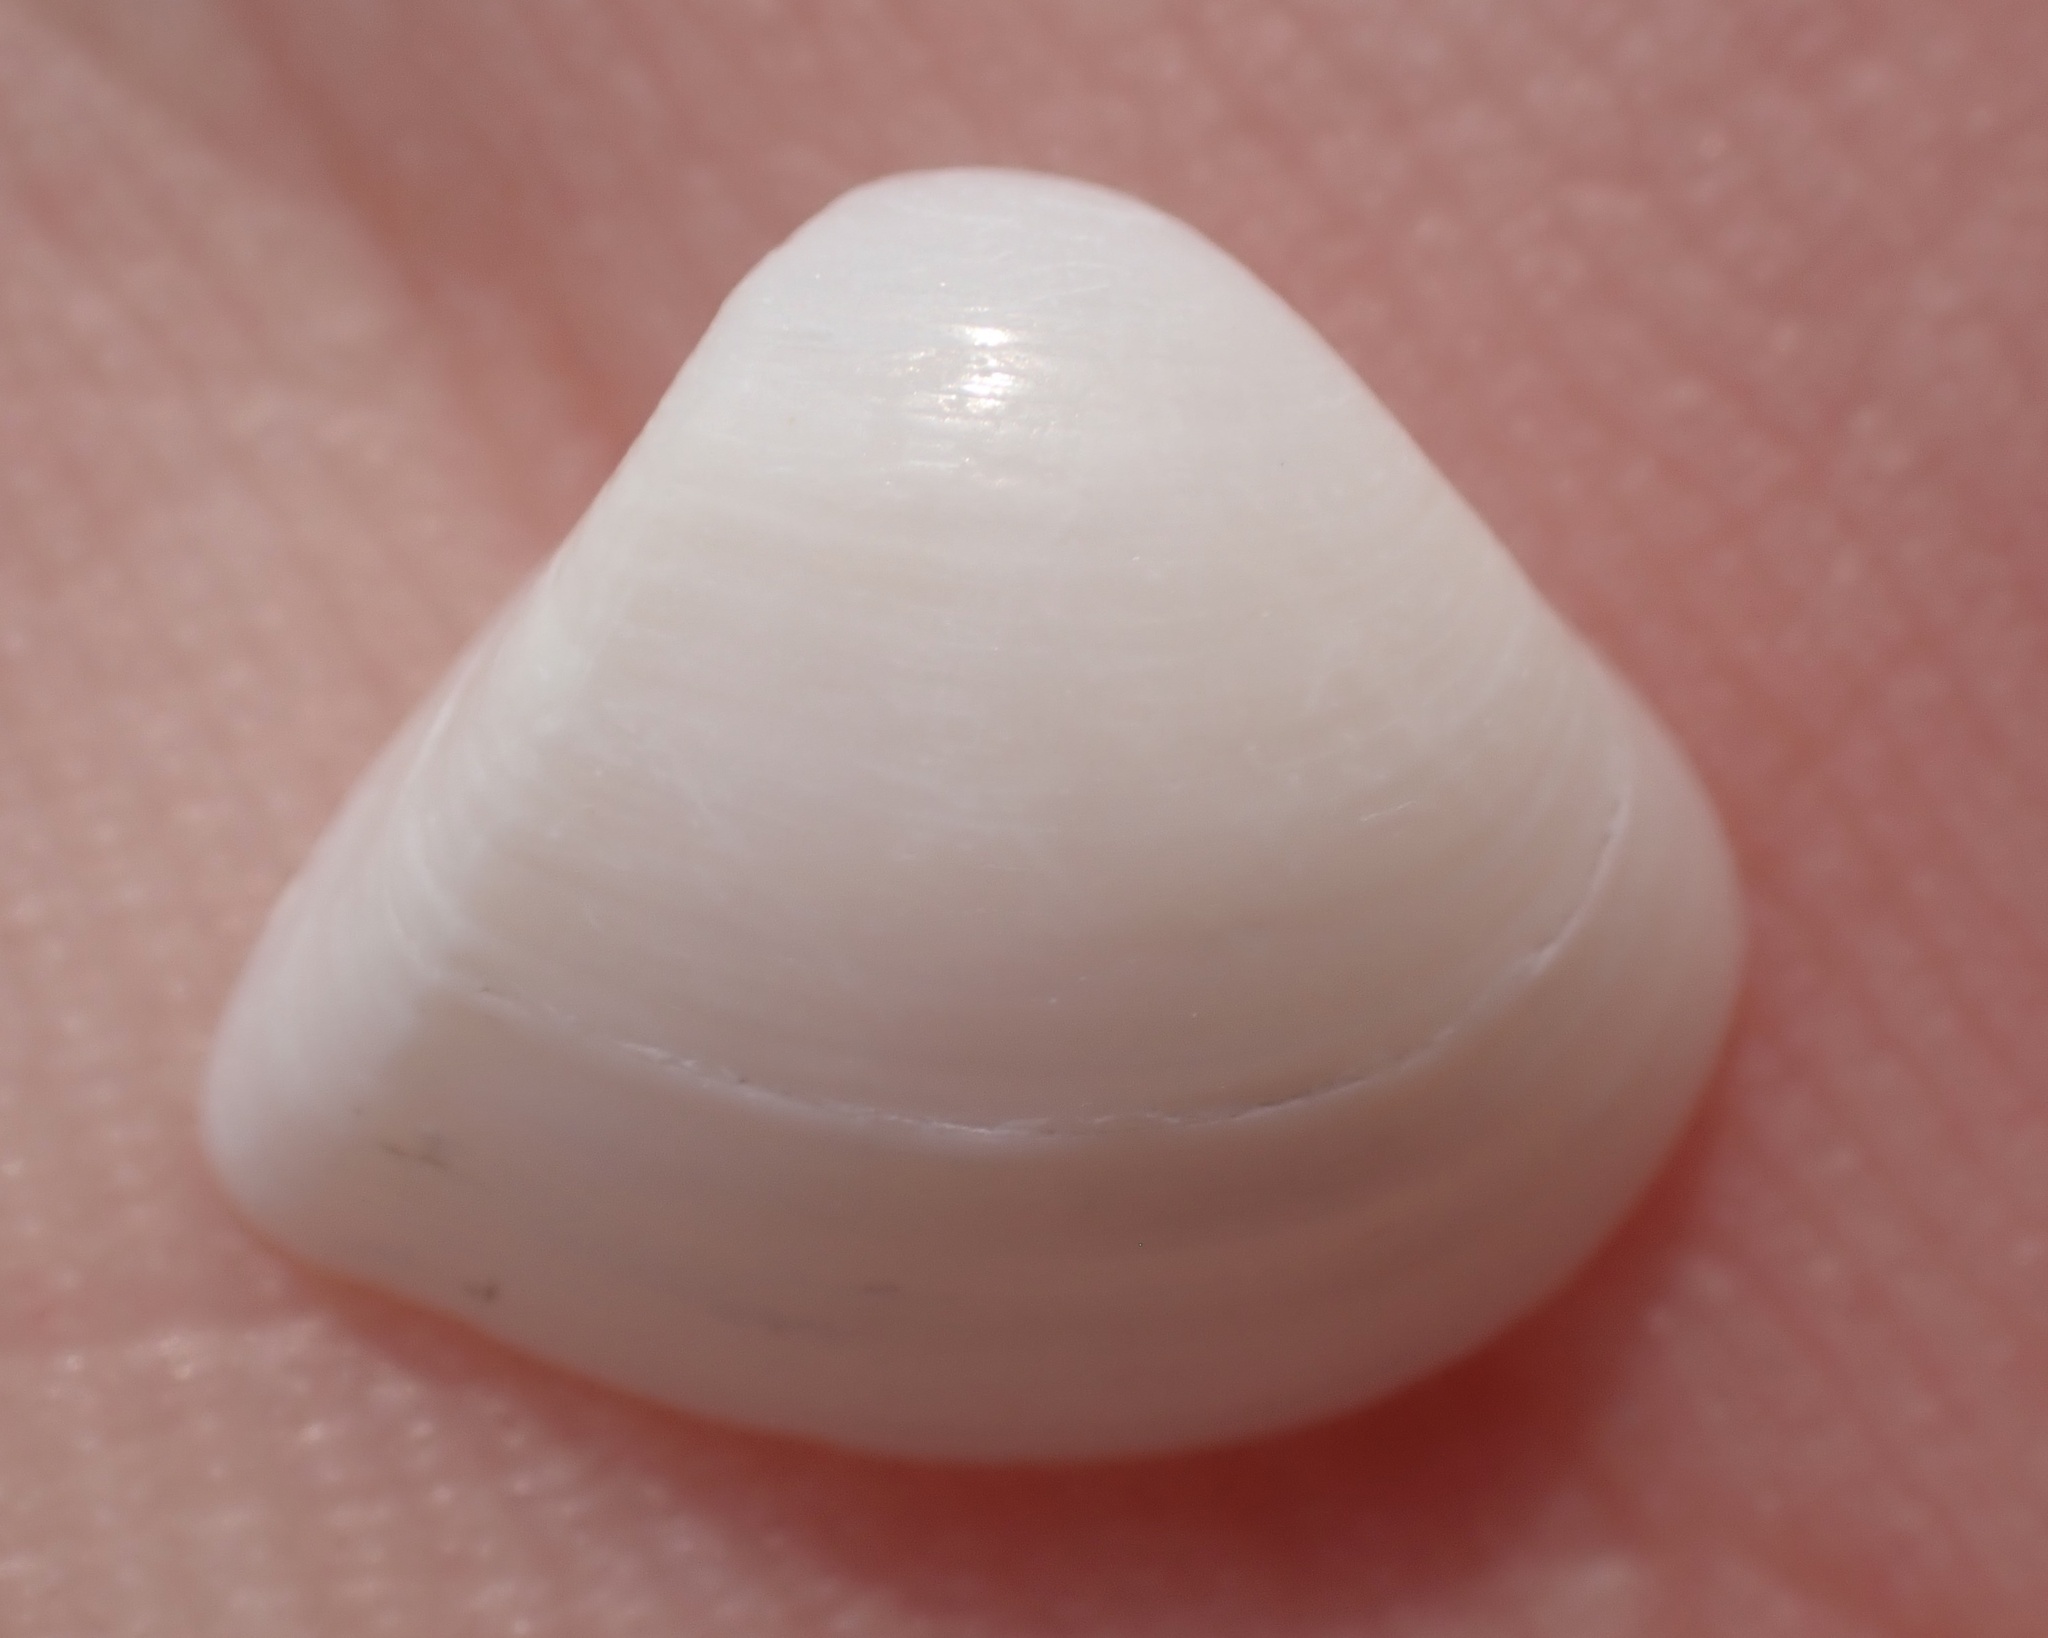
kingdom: Animalia
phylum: Mollusca
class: Bivalvia
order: Venerida
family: Mactridae
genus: Mulinia
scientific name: Mulinia lateralis
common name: Dwarf surfclam
